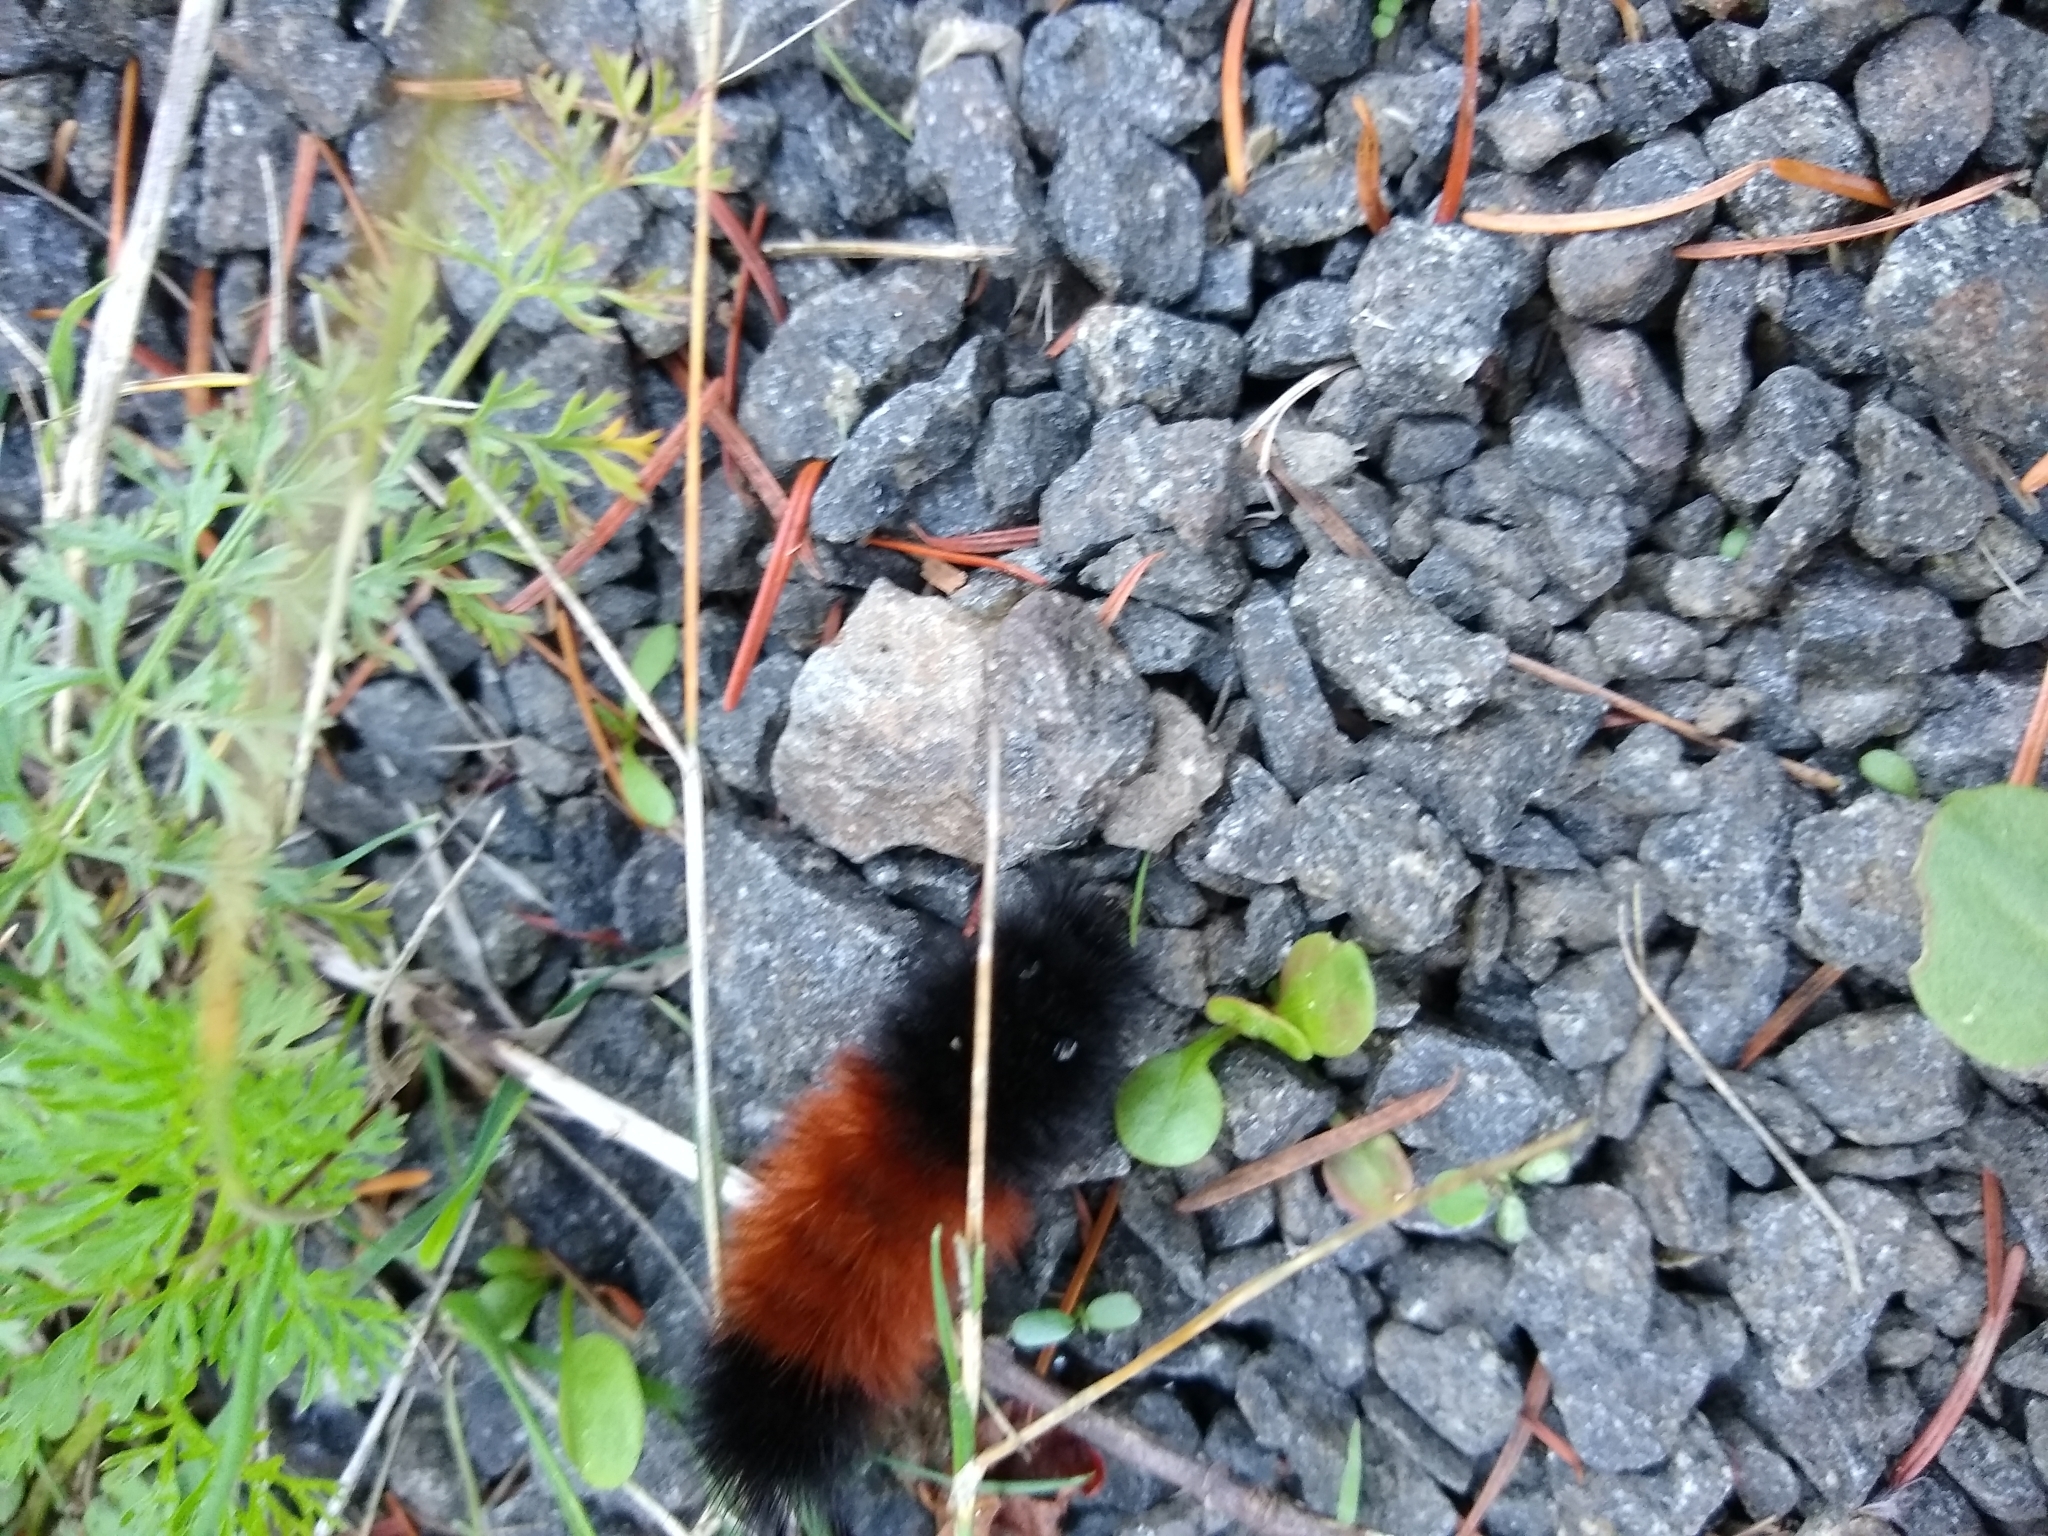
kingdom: Animalia
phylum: Arthropoda
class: Insecta
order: Lepidoptera
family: Erebidae
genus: Pyrrharctia
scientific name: Pyrrharctia isabella
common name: Isabella tiger moth
